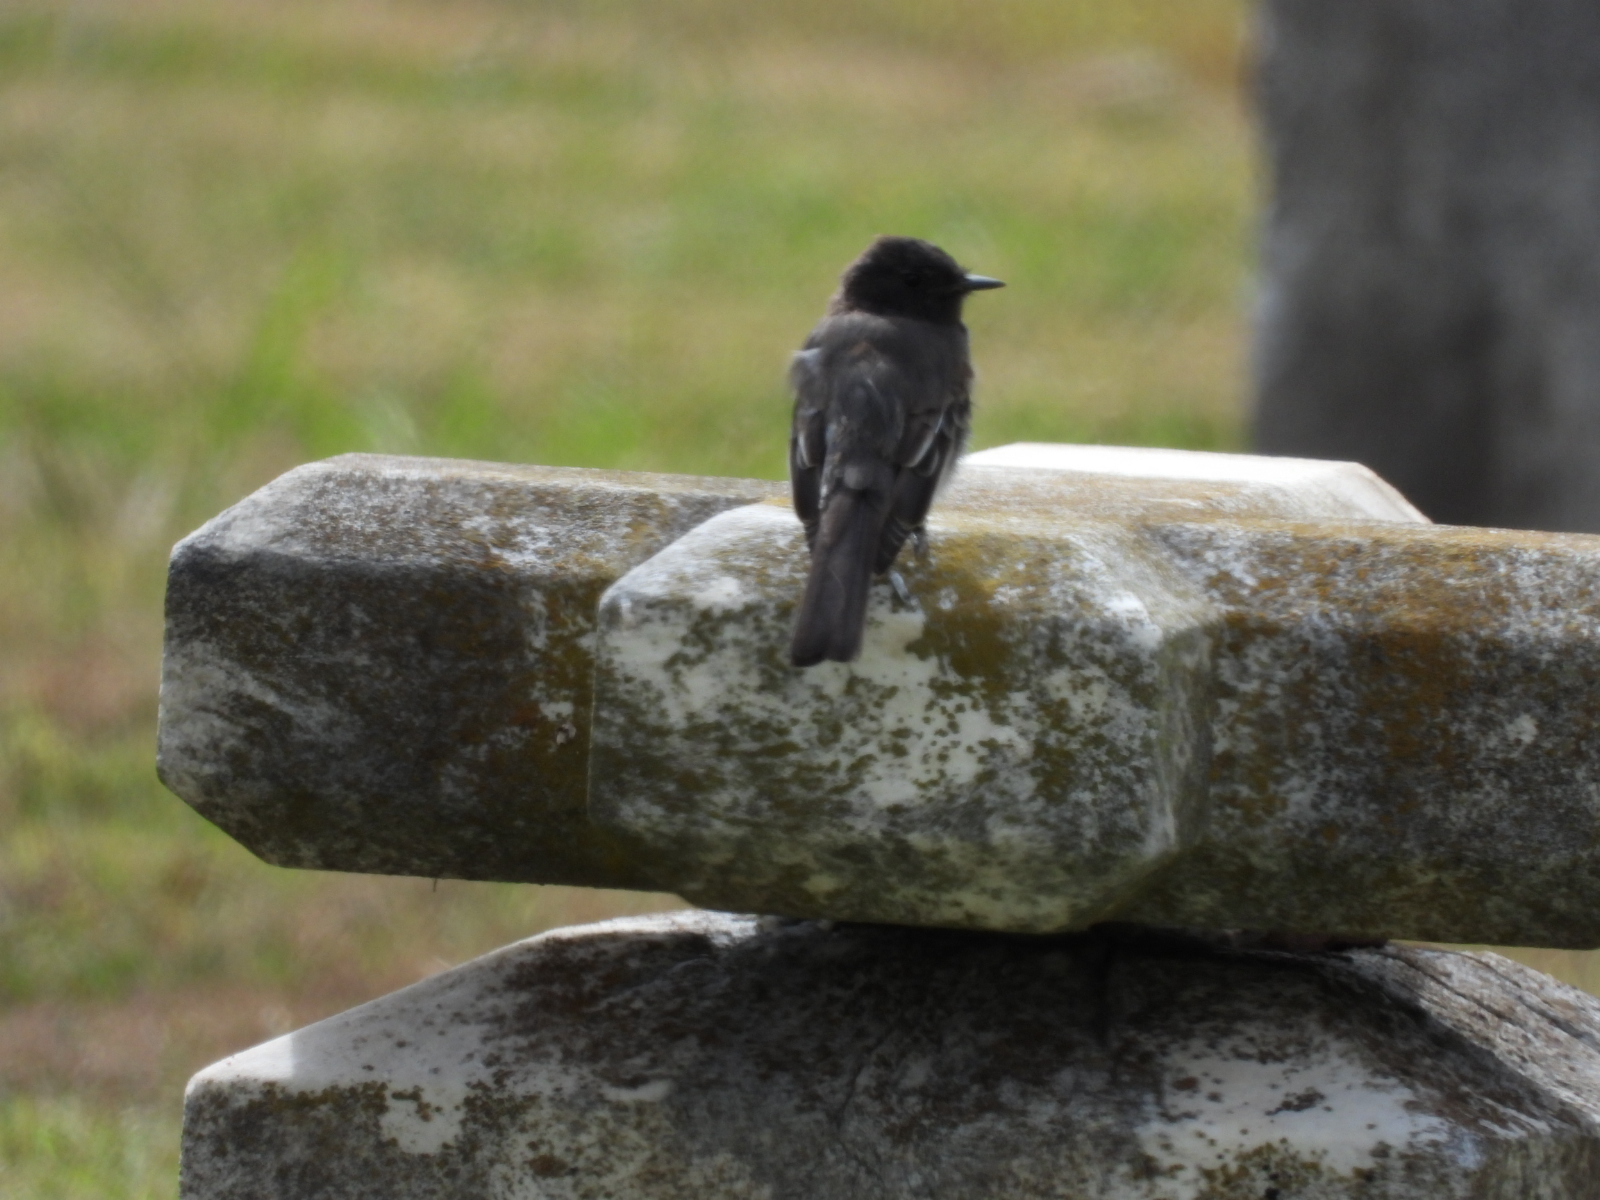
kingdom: Animalia
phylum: Chordata
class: Aves
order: Passeriformes
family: Tyrannidae
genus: Sayornis
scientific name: Sayornis nigricans
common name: Black phoebe
